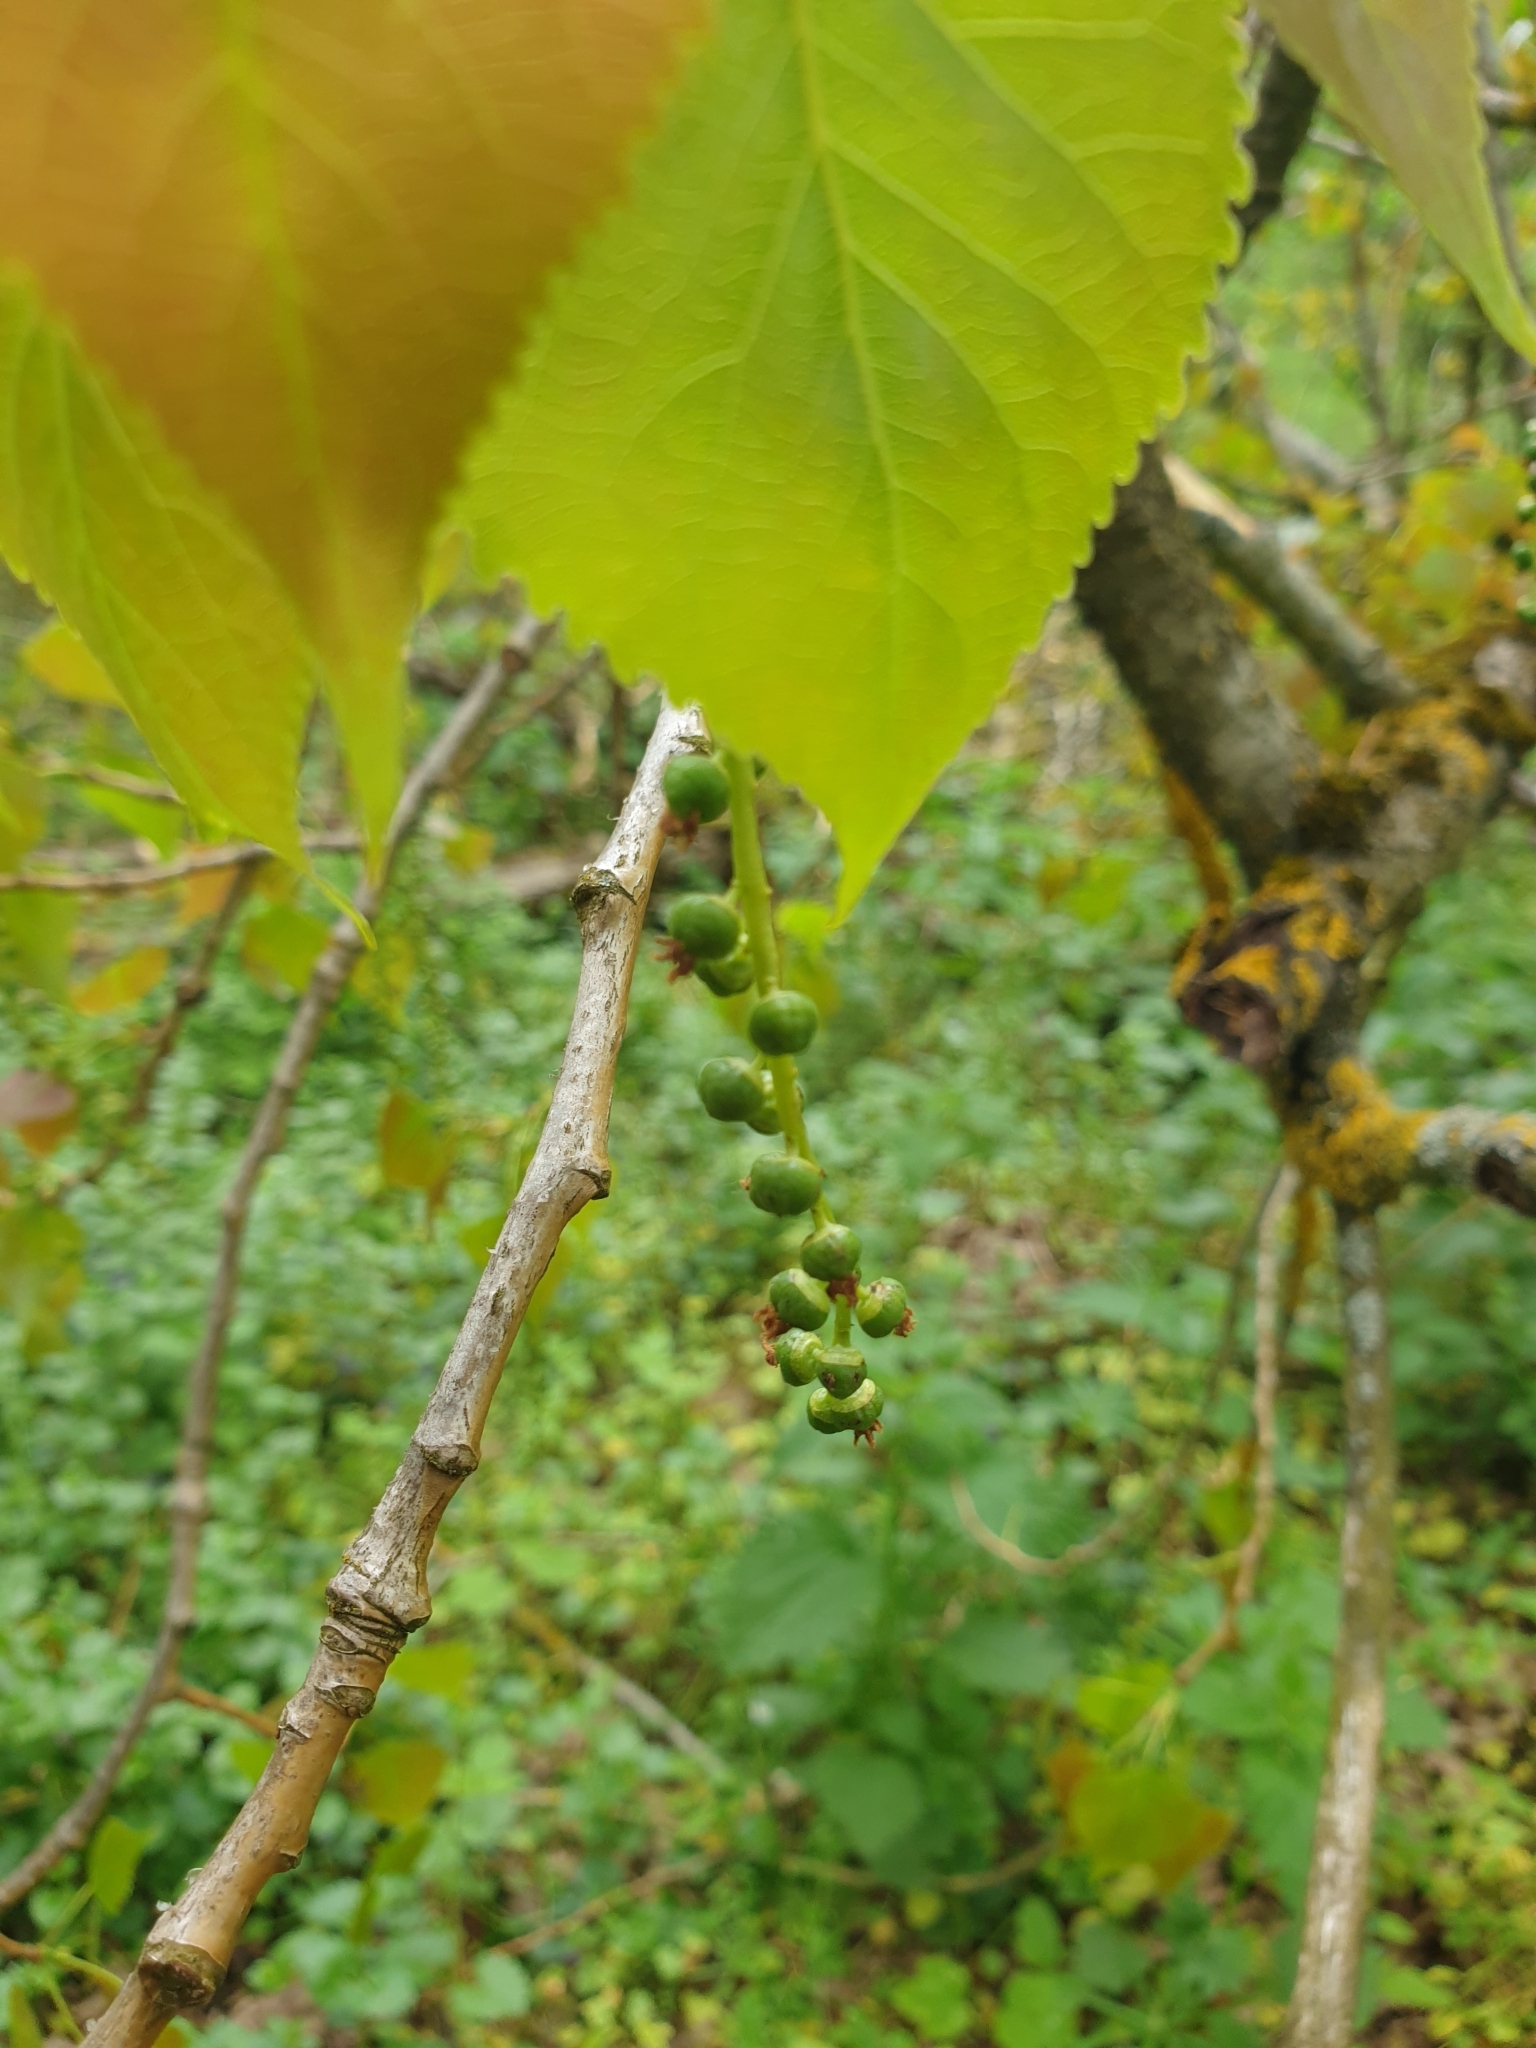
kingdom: Plantae
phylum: Tracheophyta
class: Magnoliopsida
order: Malpighiales
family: Salicaceae
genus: Populus
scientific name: Populus nigra
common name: Black poplar
